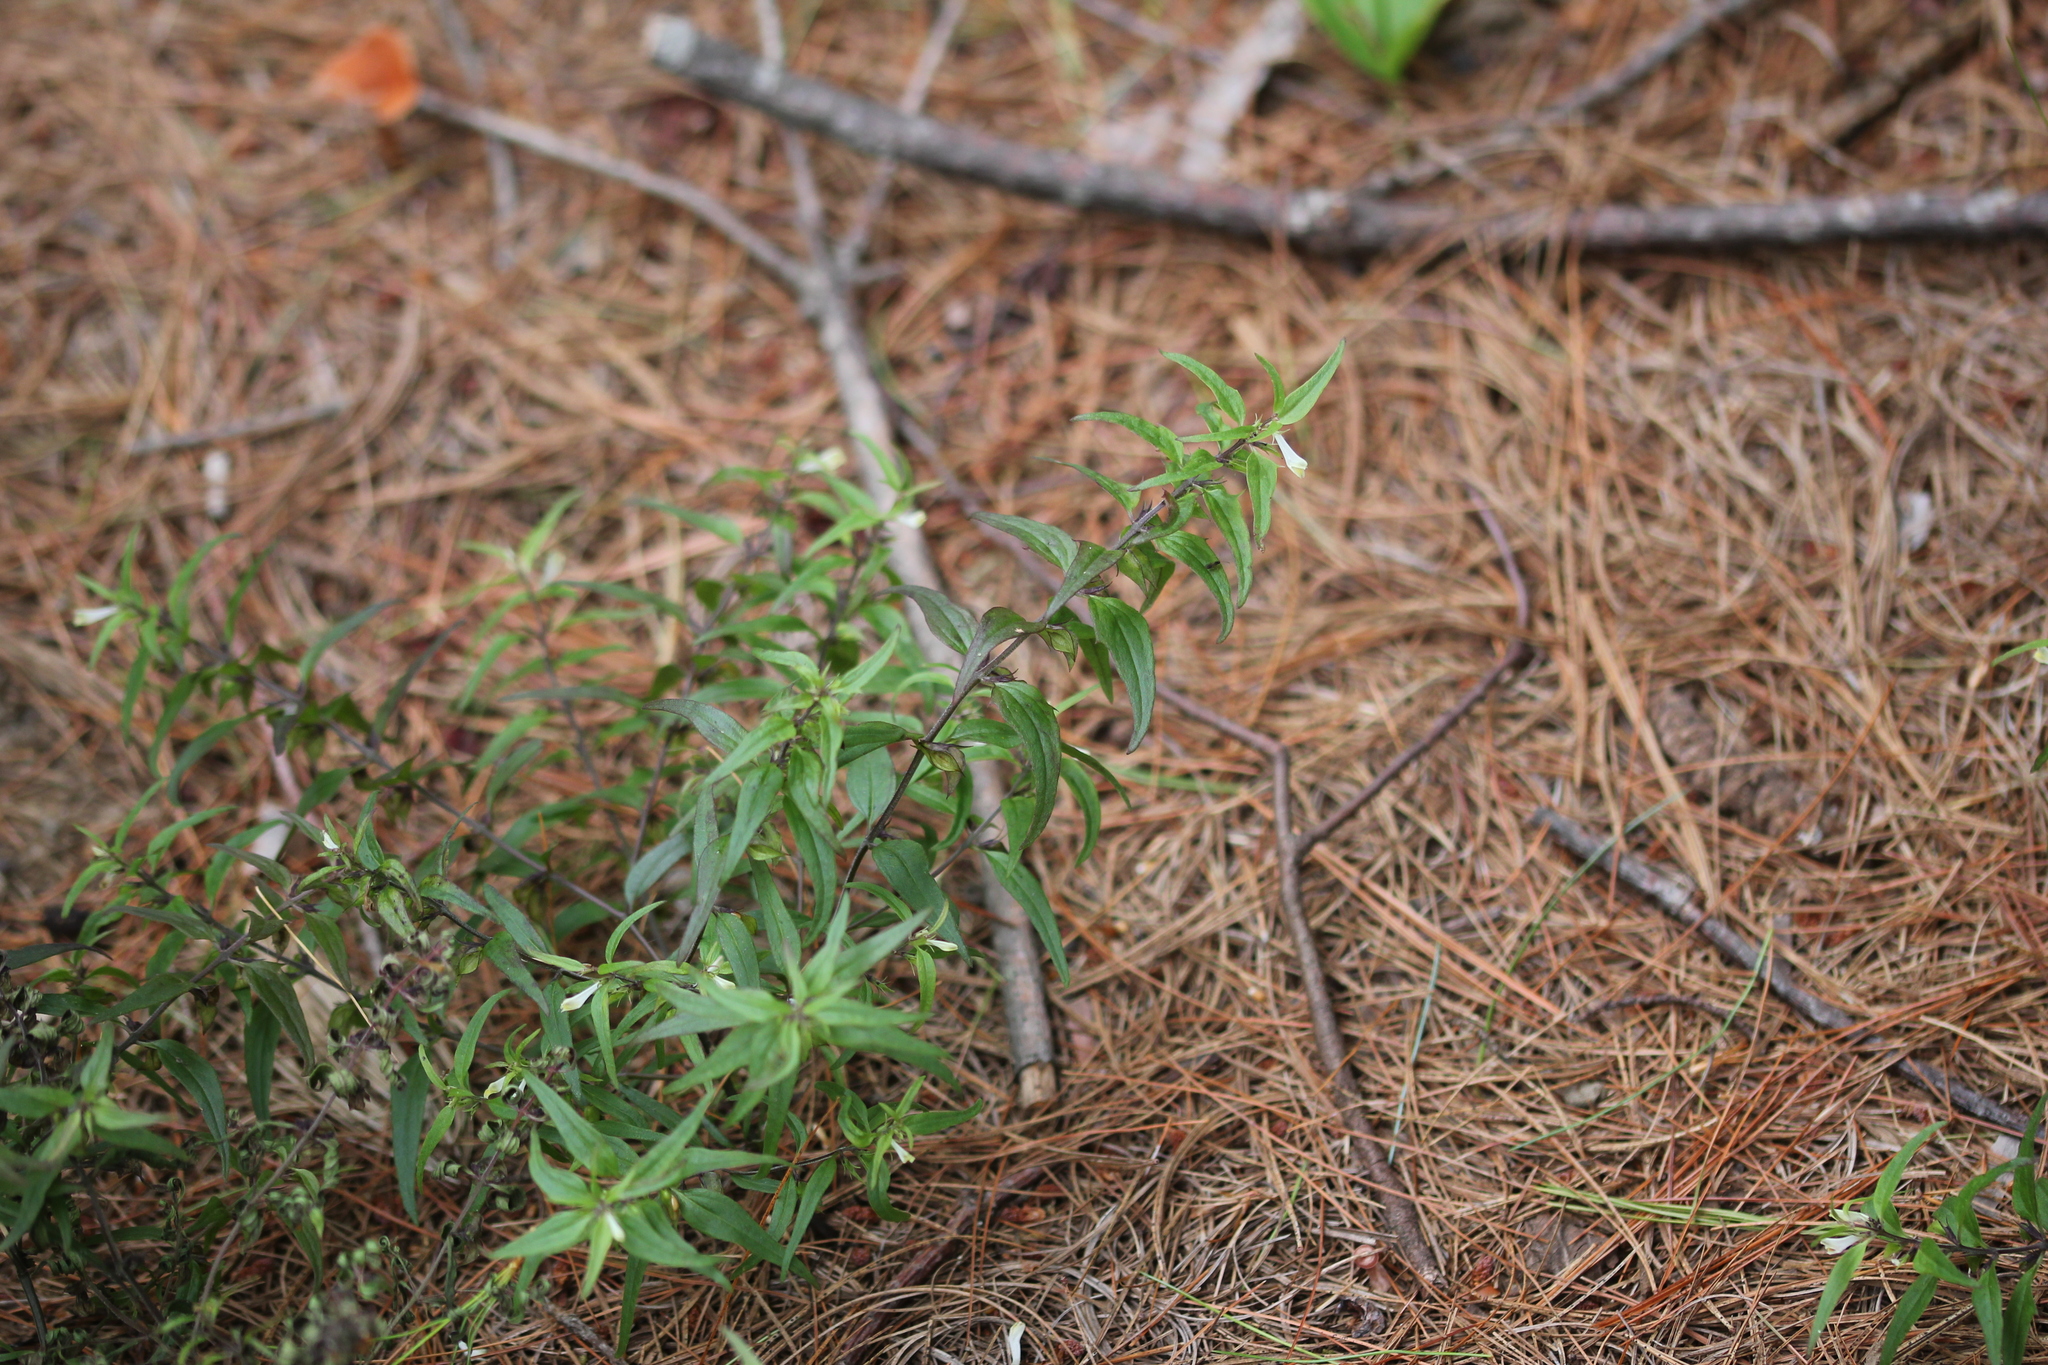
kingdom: Plantae
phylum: Tracheophyta
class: Magnoliopsida
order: Lamiales
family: Orobanchaceae
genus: Melampyrum
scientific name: Melampyrum lineare
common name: American cow-wheat
